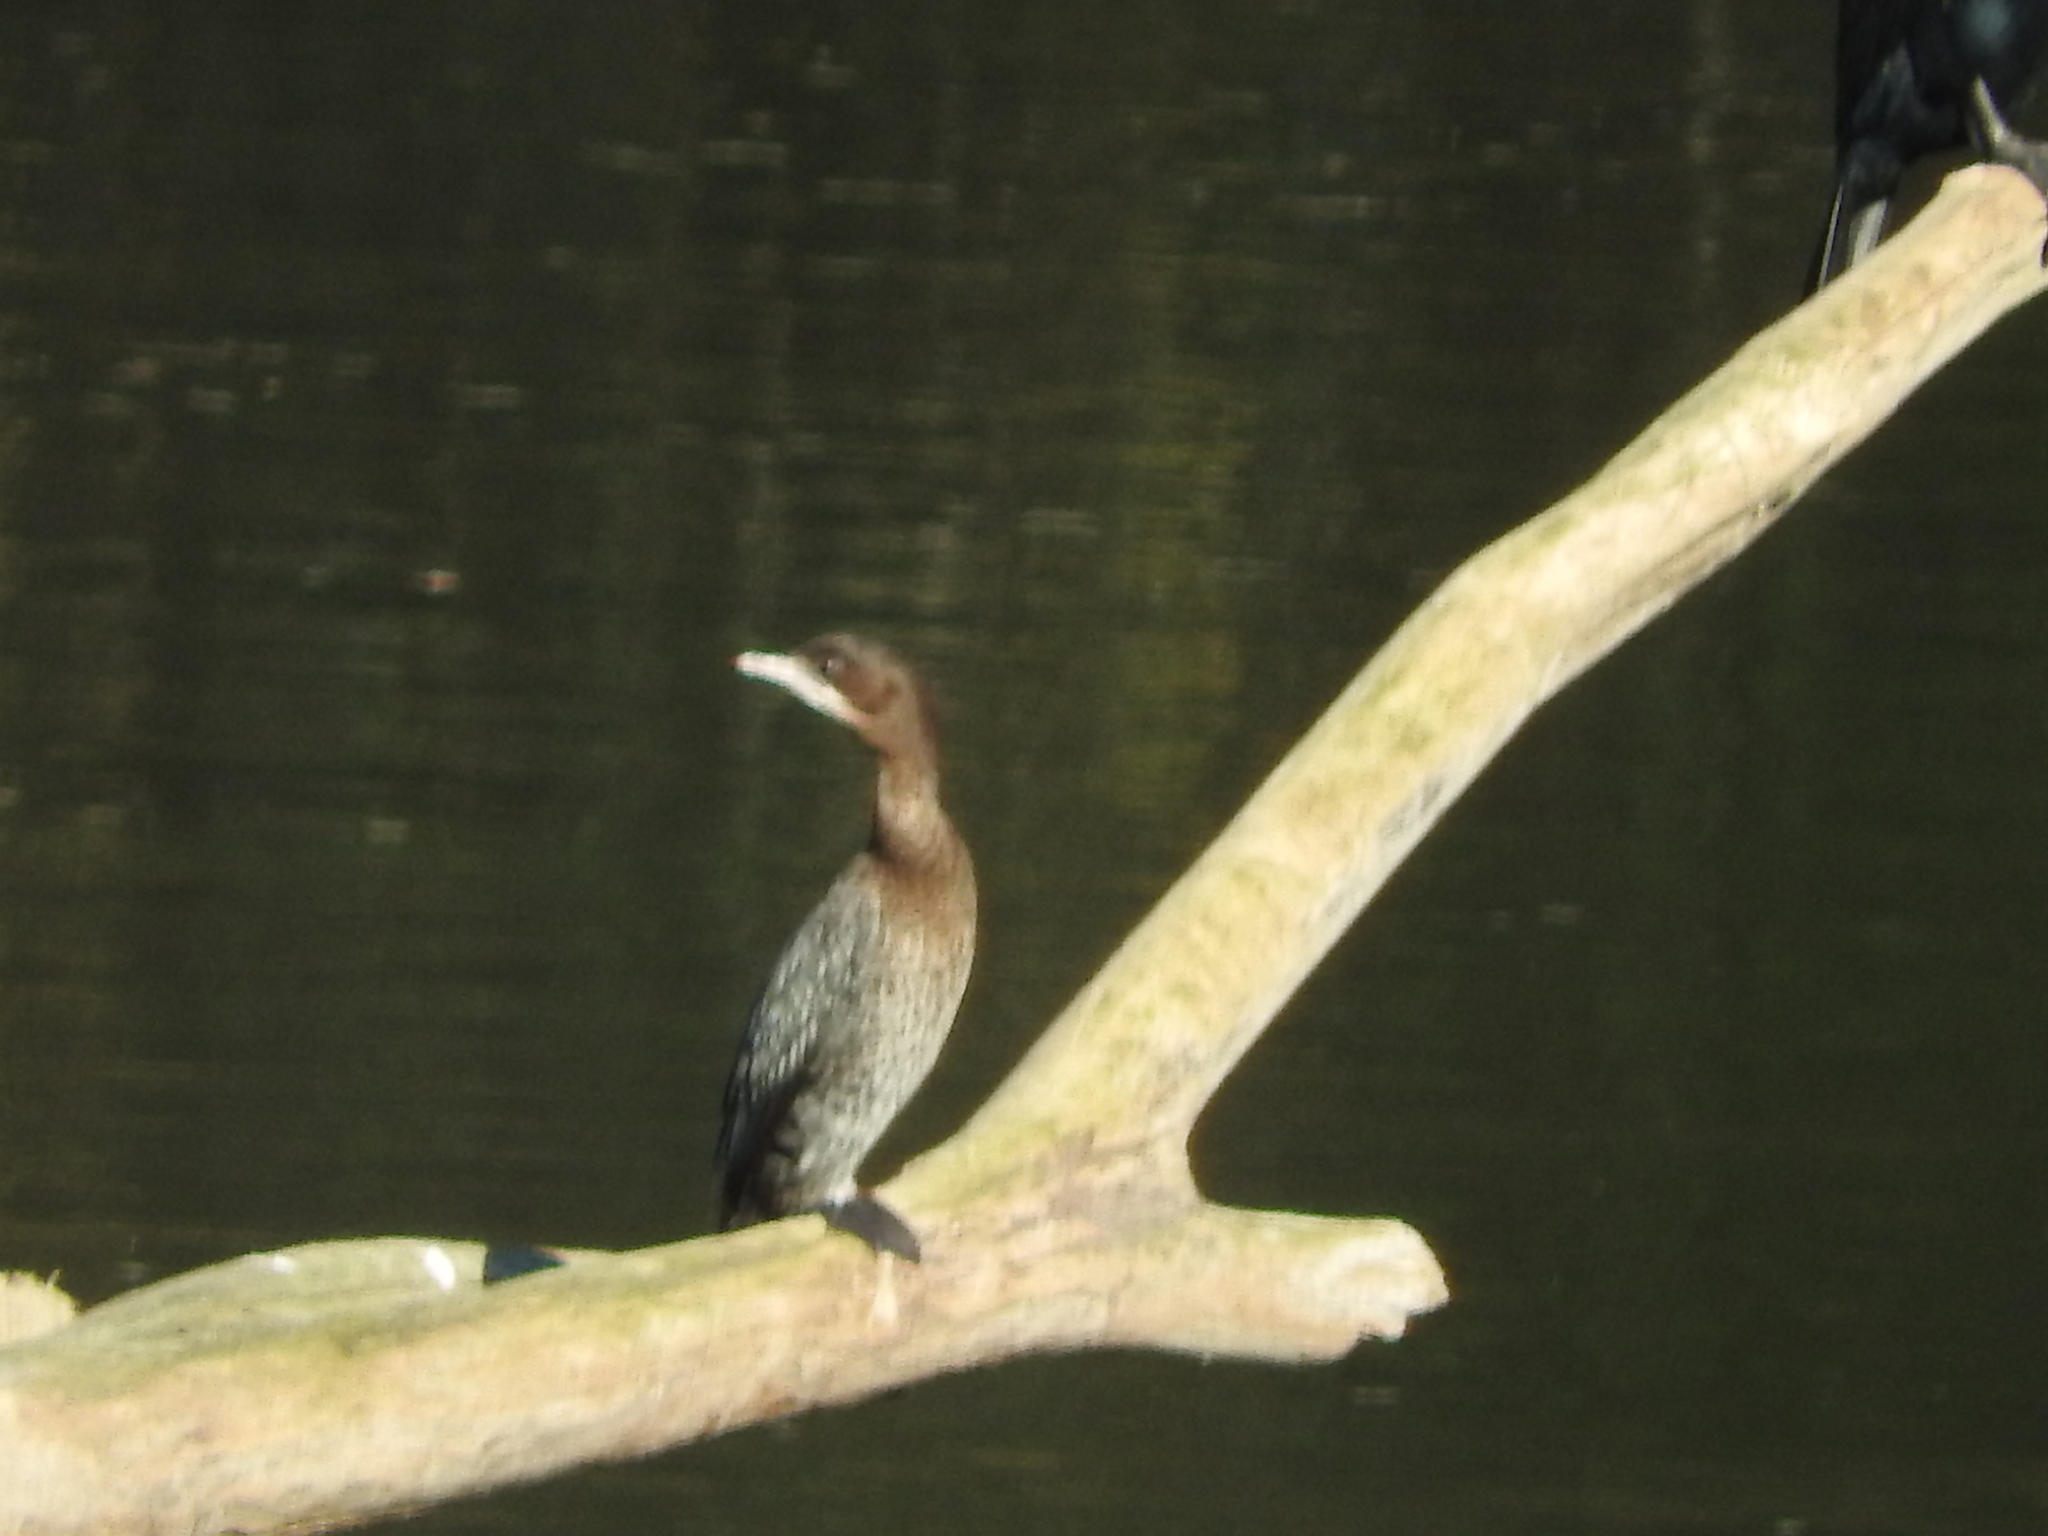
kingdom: Animalia
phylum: Chordata
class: Aves
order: Suliformes
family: Phalacrocoracidae
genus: Microcarbo
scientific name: Microcarbo pygmaeus
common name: Pygmy cormorant
